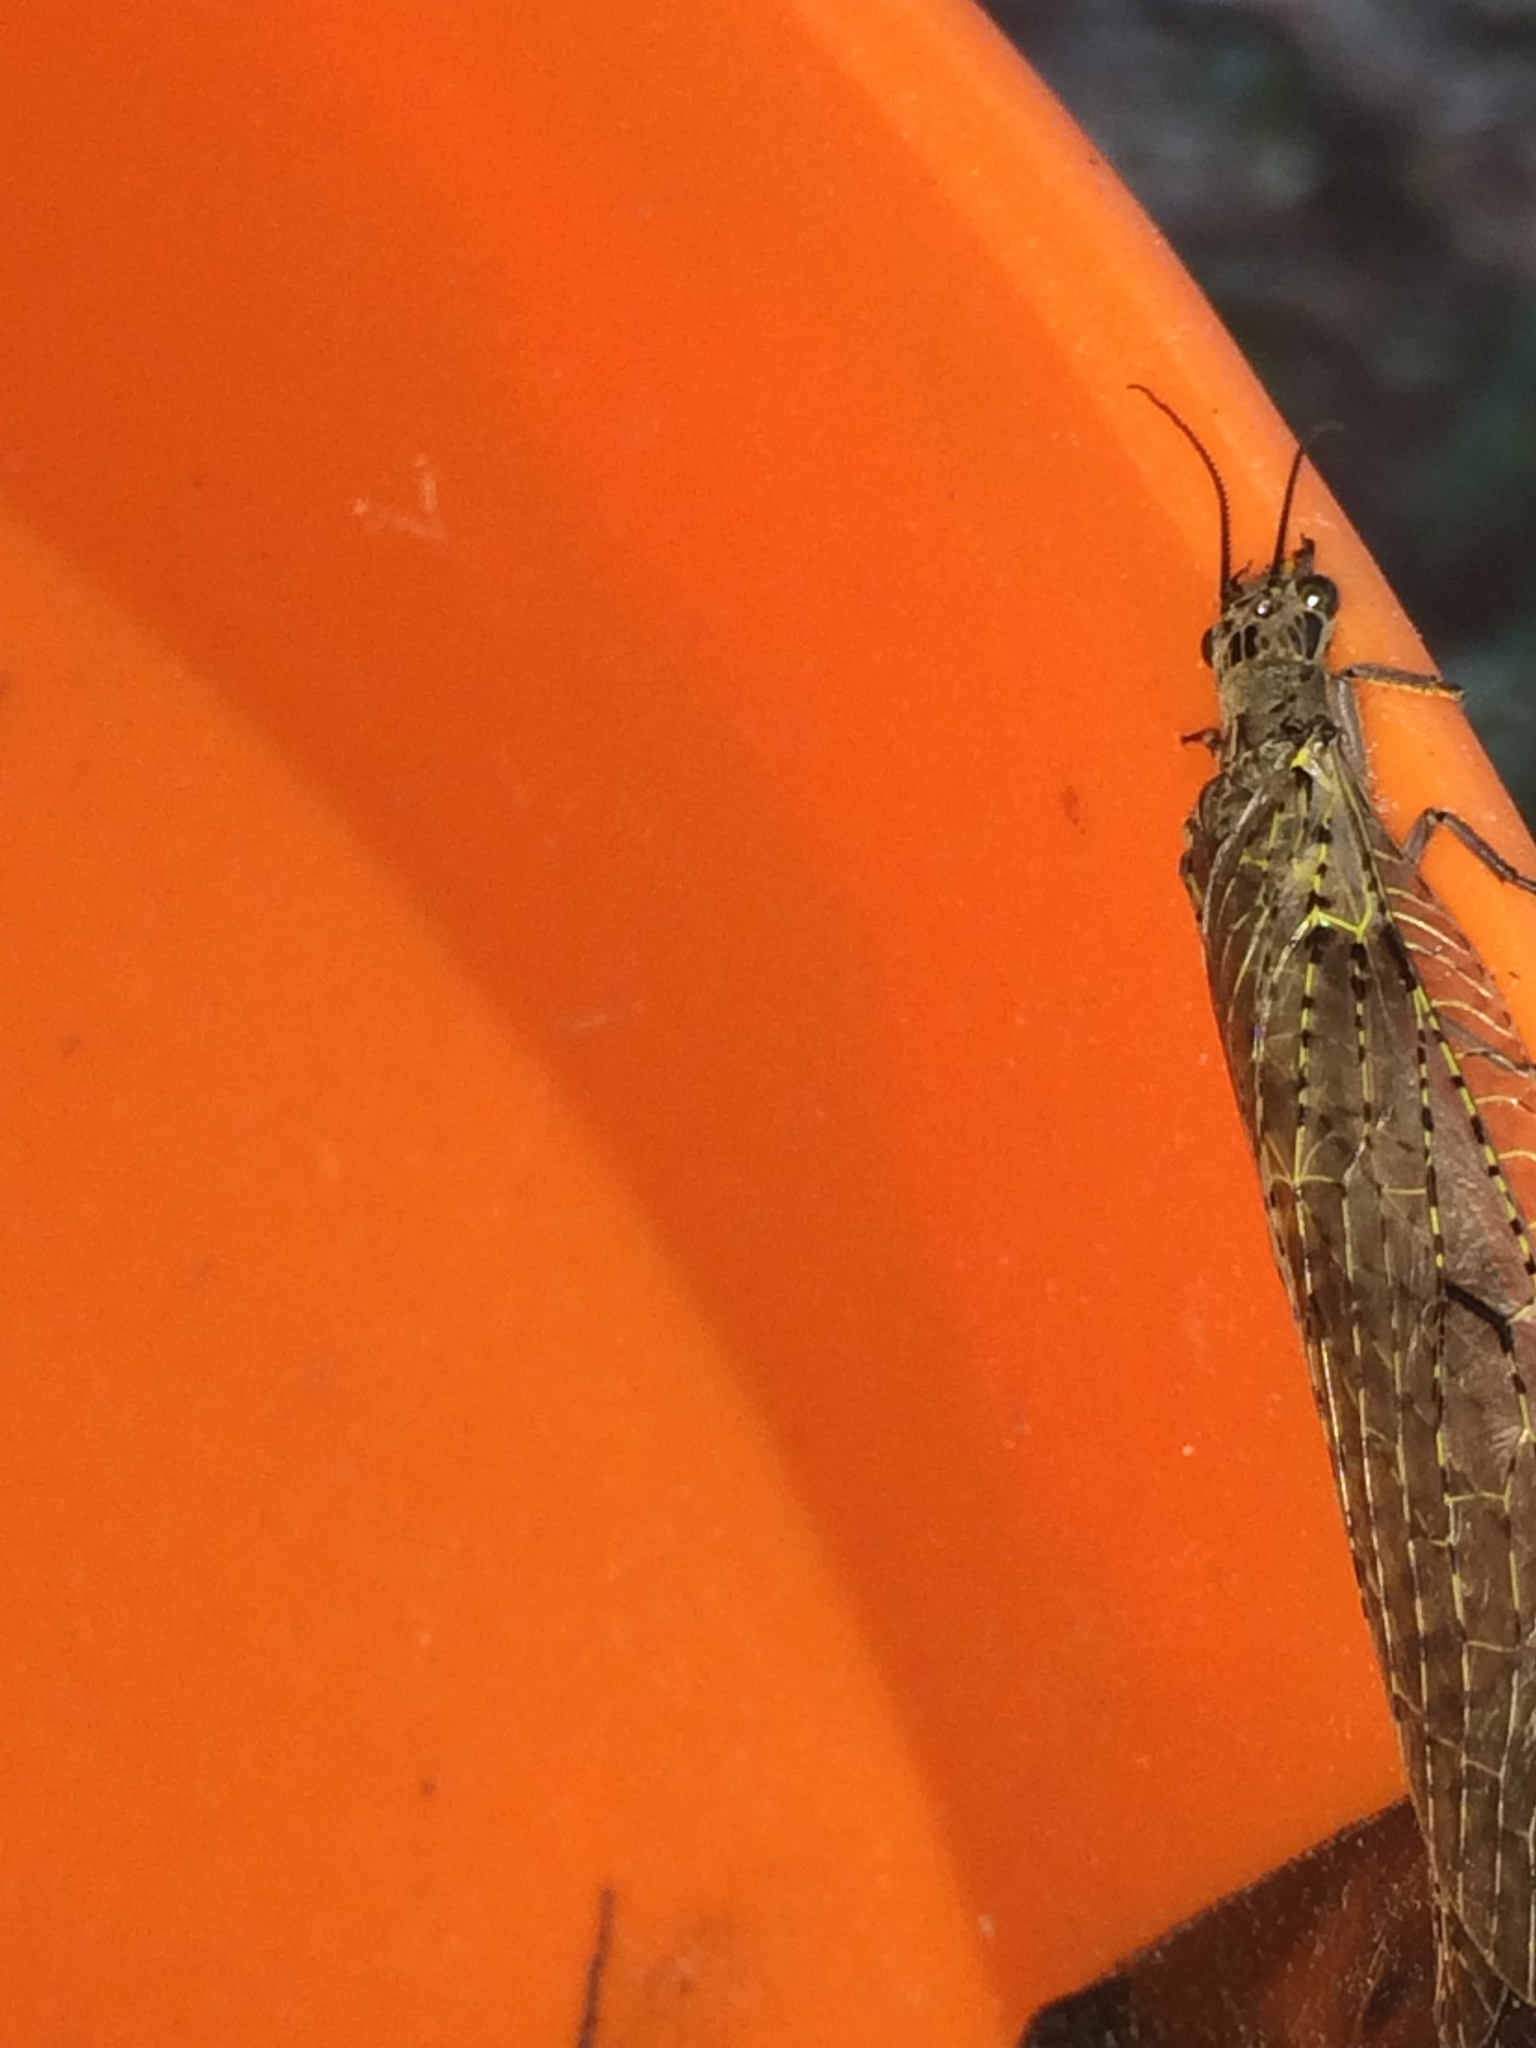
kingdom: Animalia
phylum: Arthropoda
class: Insecta
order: Megaloptera
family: Corydalidae
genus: Chauliodes
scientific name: Chauliodes rastricornis
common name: Spring fishfly
